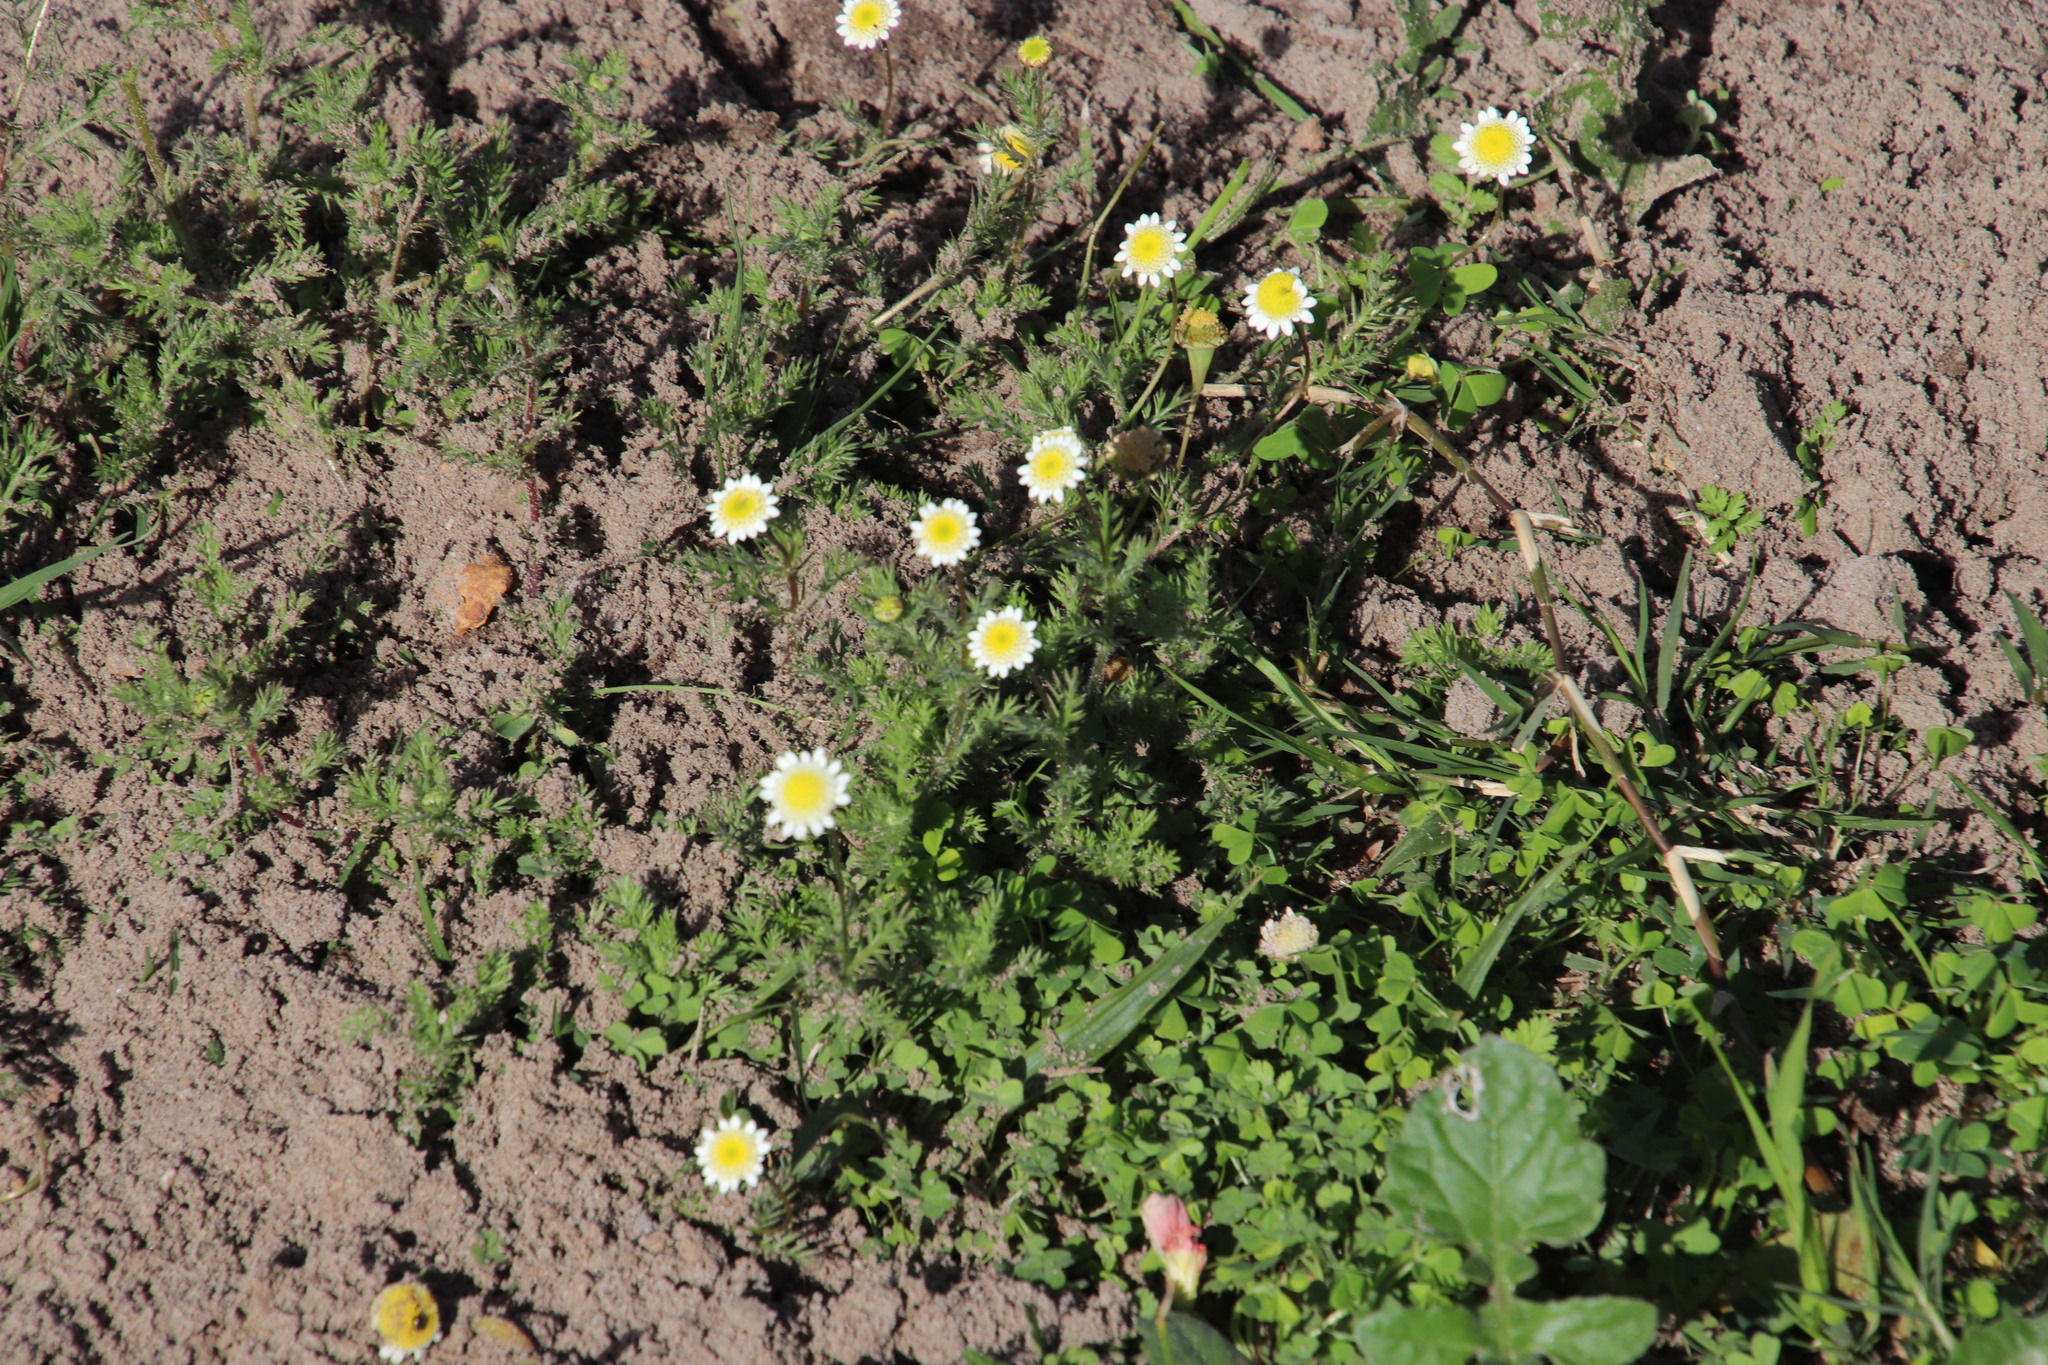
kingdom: Plantae
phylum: Tracheophyta
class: Magnoliopsida
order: Asterales
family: Asteraceae
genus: Cotula
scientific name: Cotula turbinata
